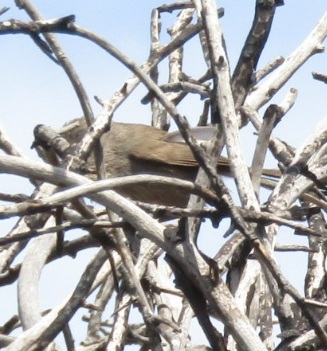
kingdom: Animalia
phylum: Chordata
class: Aves
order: Passeriformes
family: Sylviidae
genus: Chamaea
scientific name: Chamaea fasciata
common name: Wrentit
